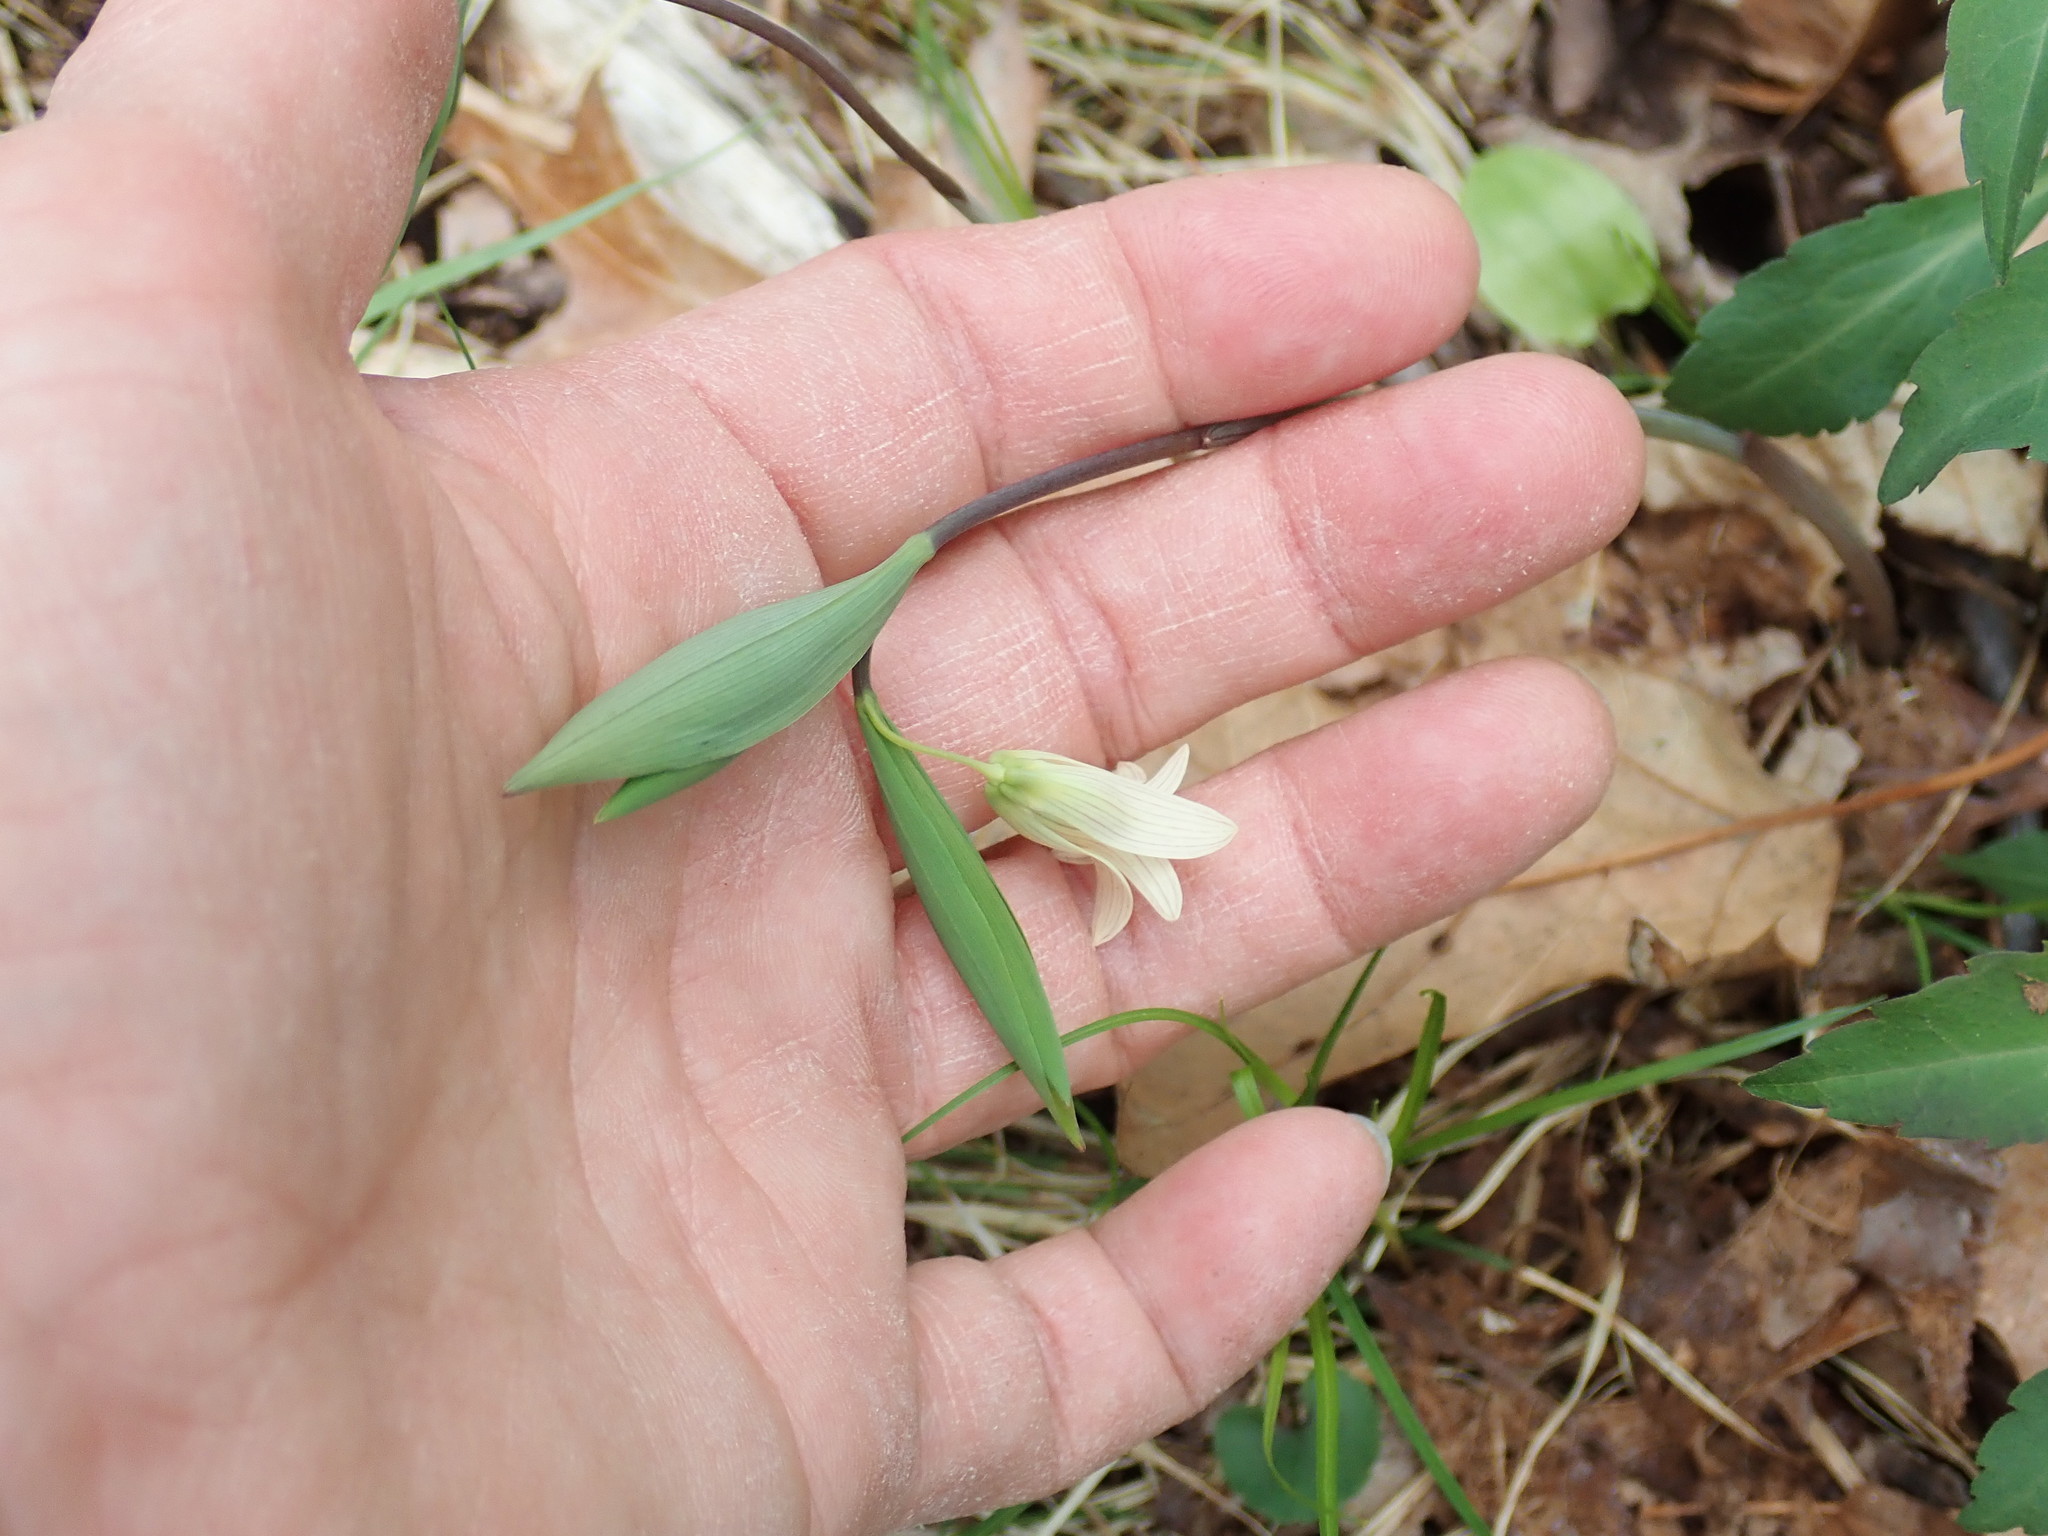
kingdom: Plantae
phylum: Tracheophyta
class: Liliopsida
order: Liliales
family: Colchicaceae
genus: Uvularia
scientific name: Uvularia sessilifolia
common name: Straw-lily
